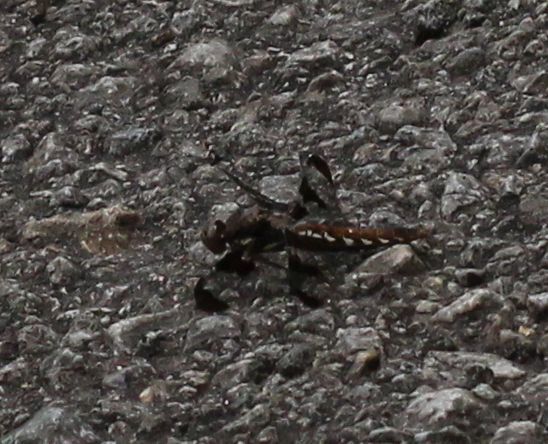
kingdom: Animalia
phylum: Arthropoda
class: Insecta
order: Odonata
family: Libellulidae
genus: Plathemis
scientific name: Plathemis lydia
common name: Common whitetail
